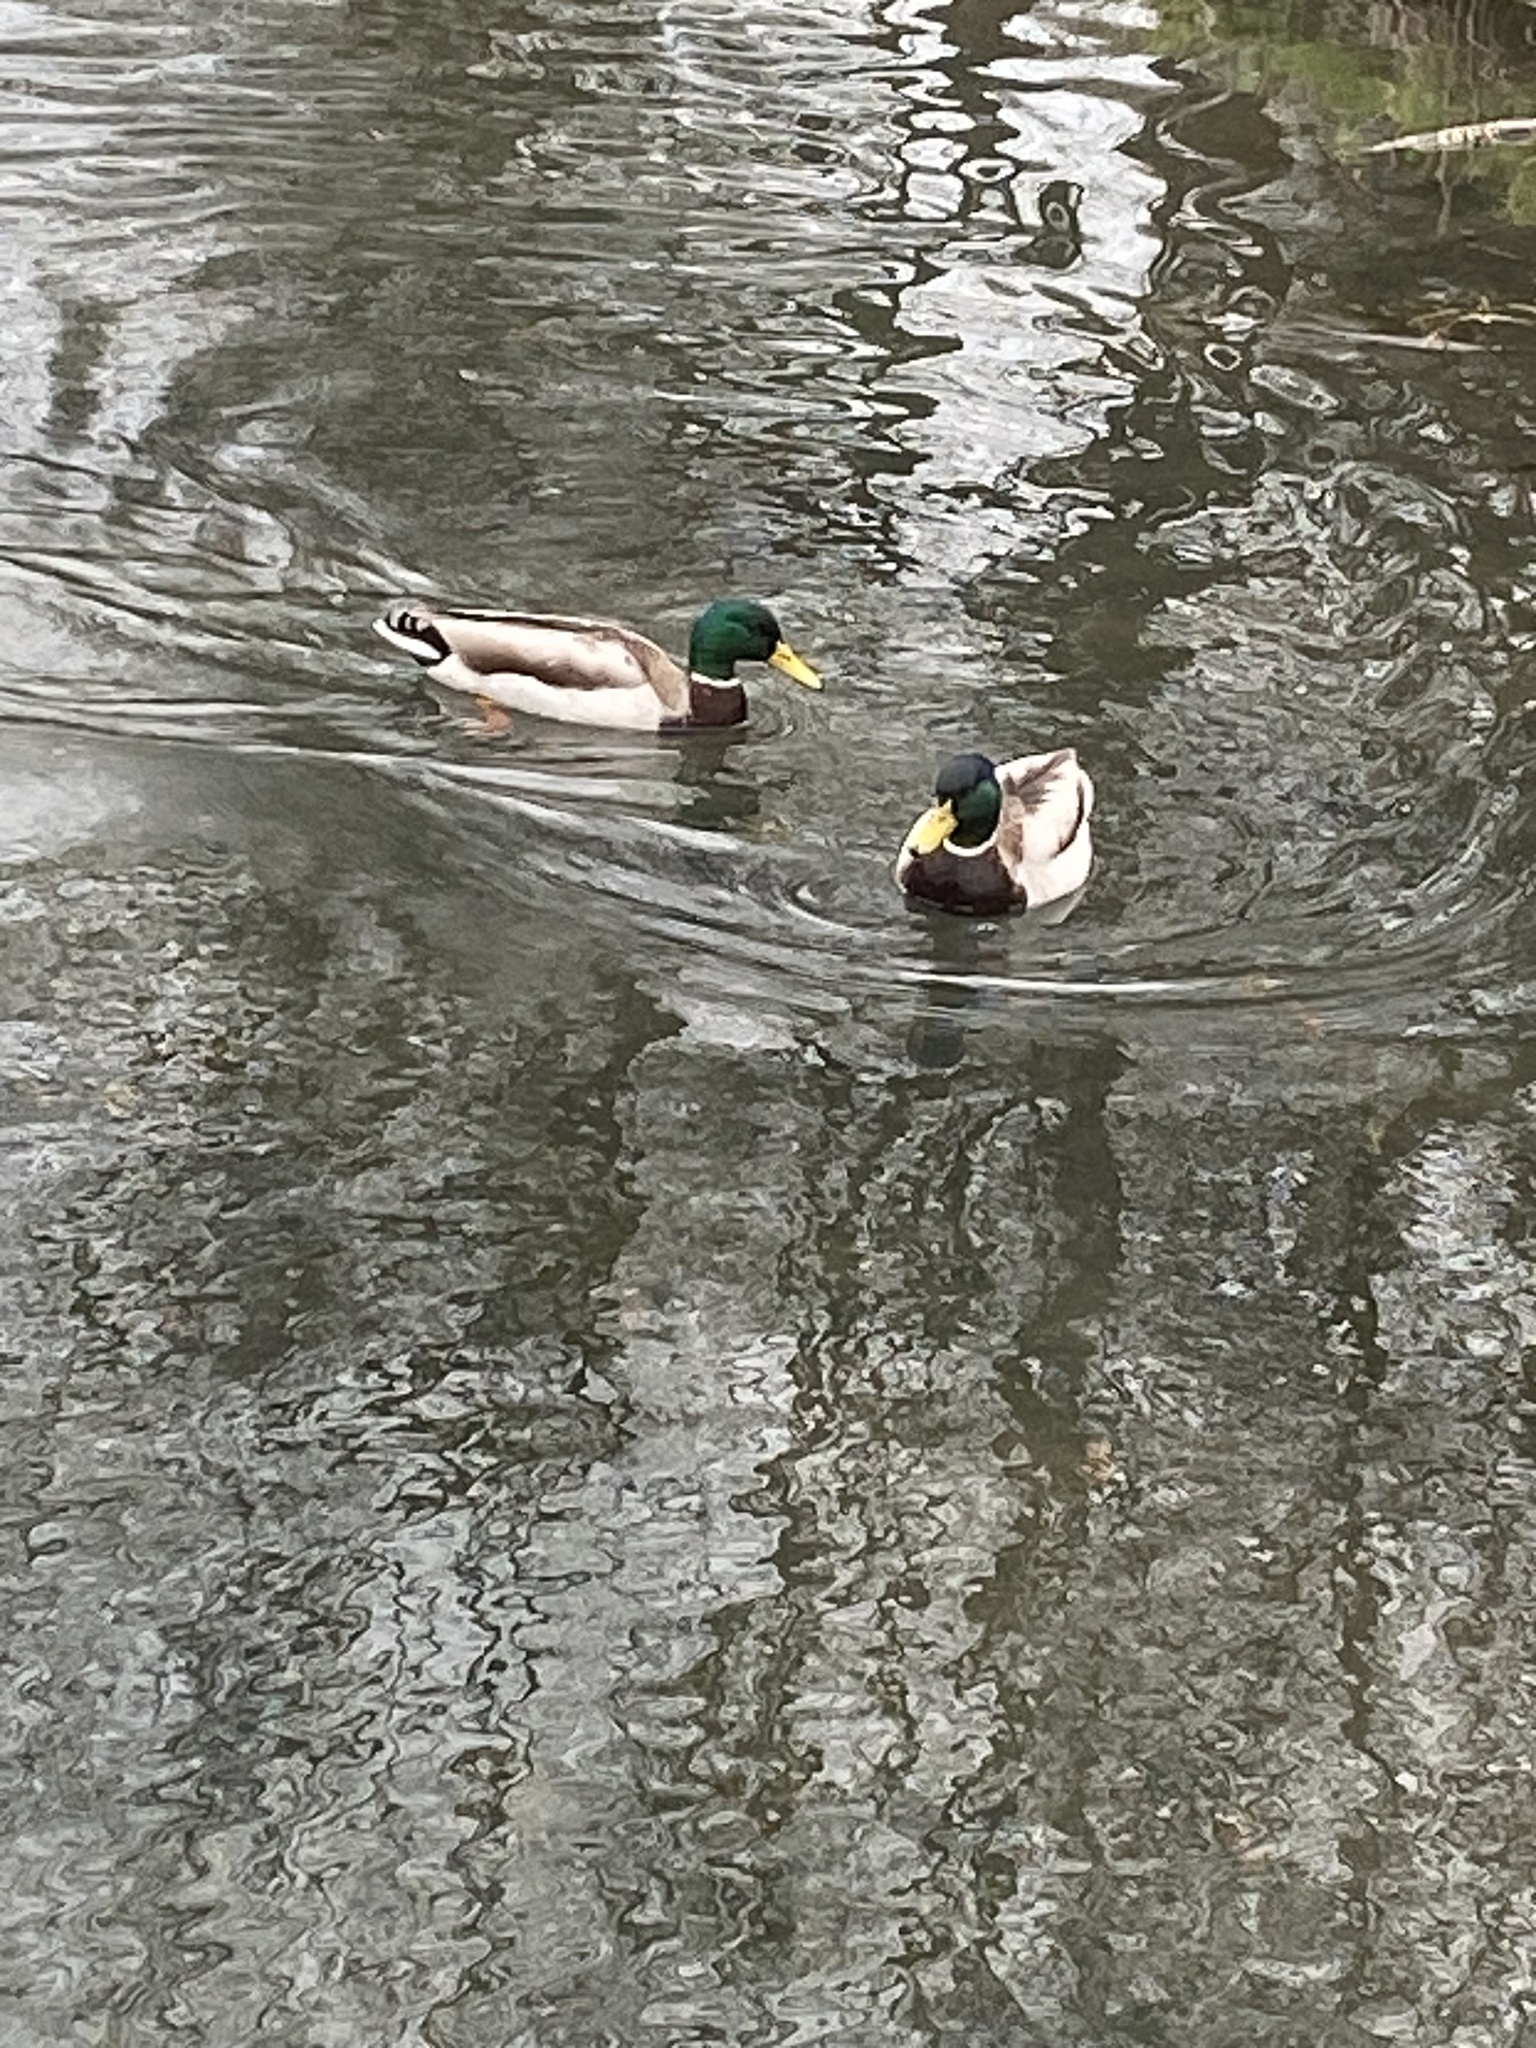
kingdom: Animalia
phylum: Chordata
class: Aves
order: Anseriformes
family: Anatidae
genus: Anas
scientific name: Anas platyrhynchos
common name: Mallard
